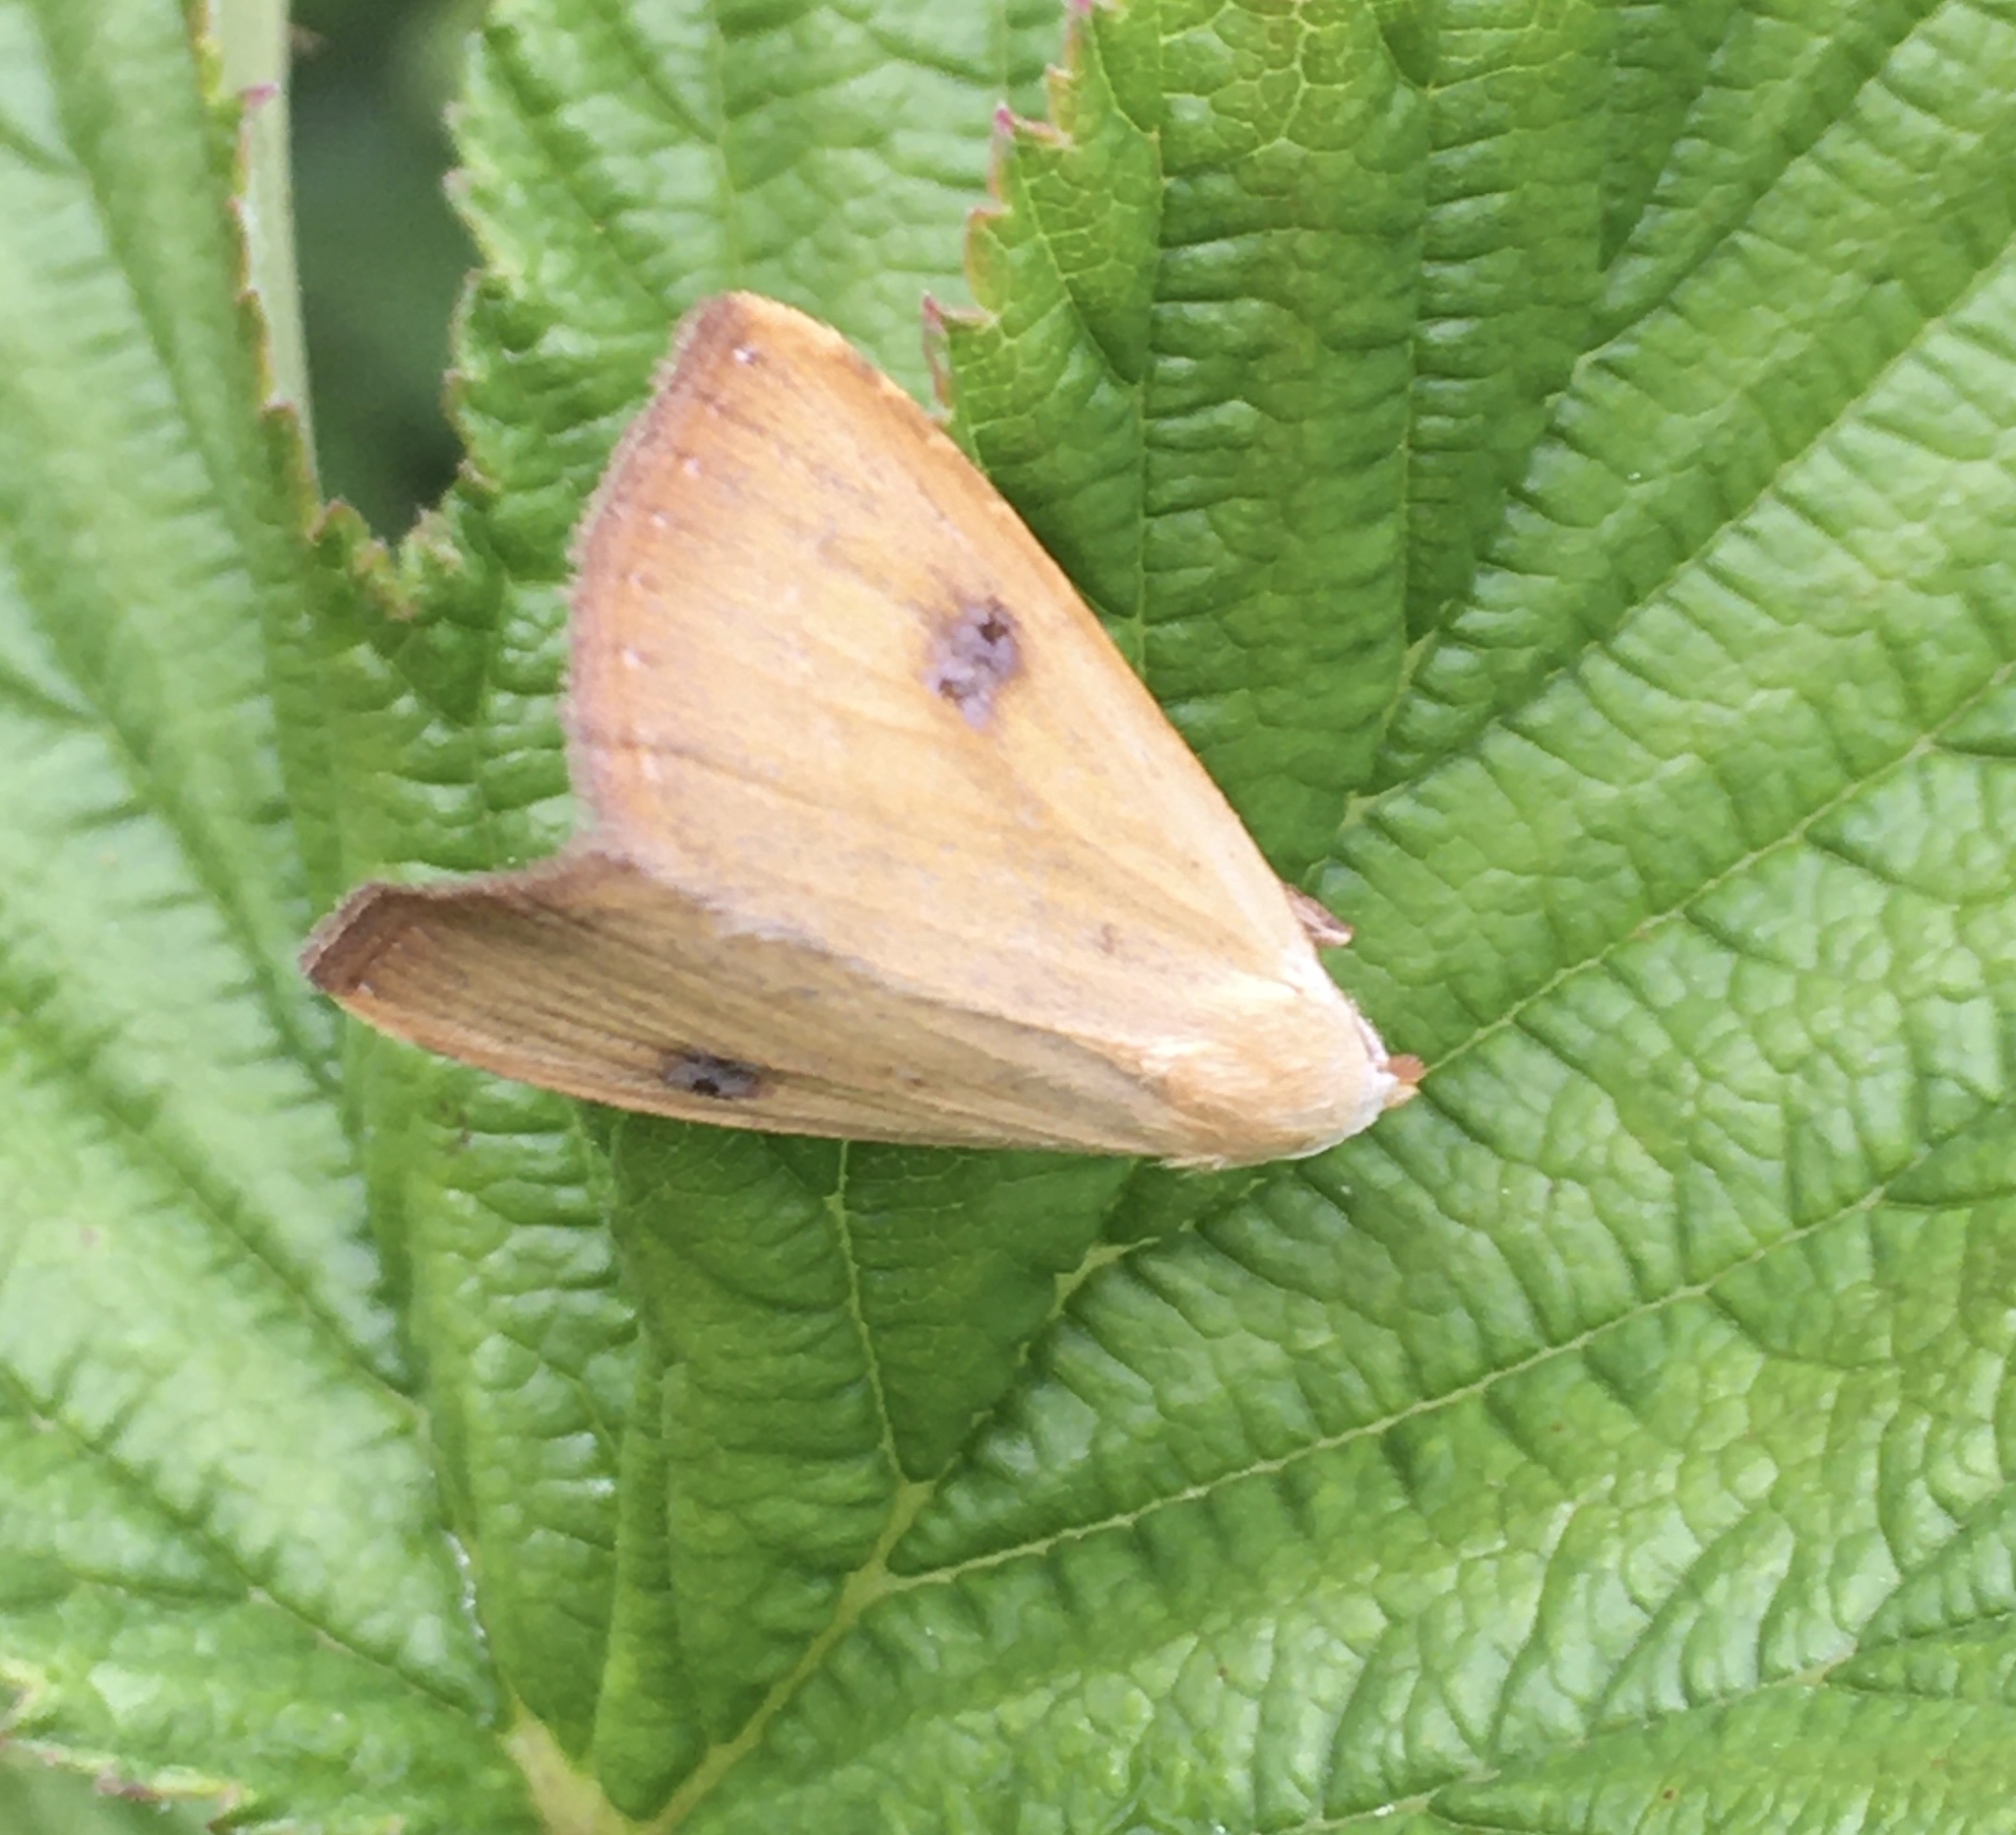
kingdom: Animalia
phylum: Arthropoda
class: Insecta
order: Lepidoptera
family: Erebidae
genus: Rivula
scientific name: Rivula sericealis
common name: Straw dot
